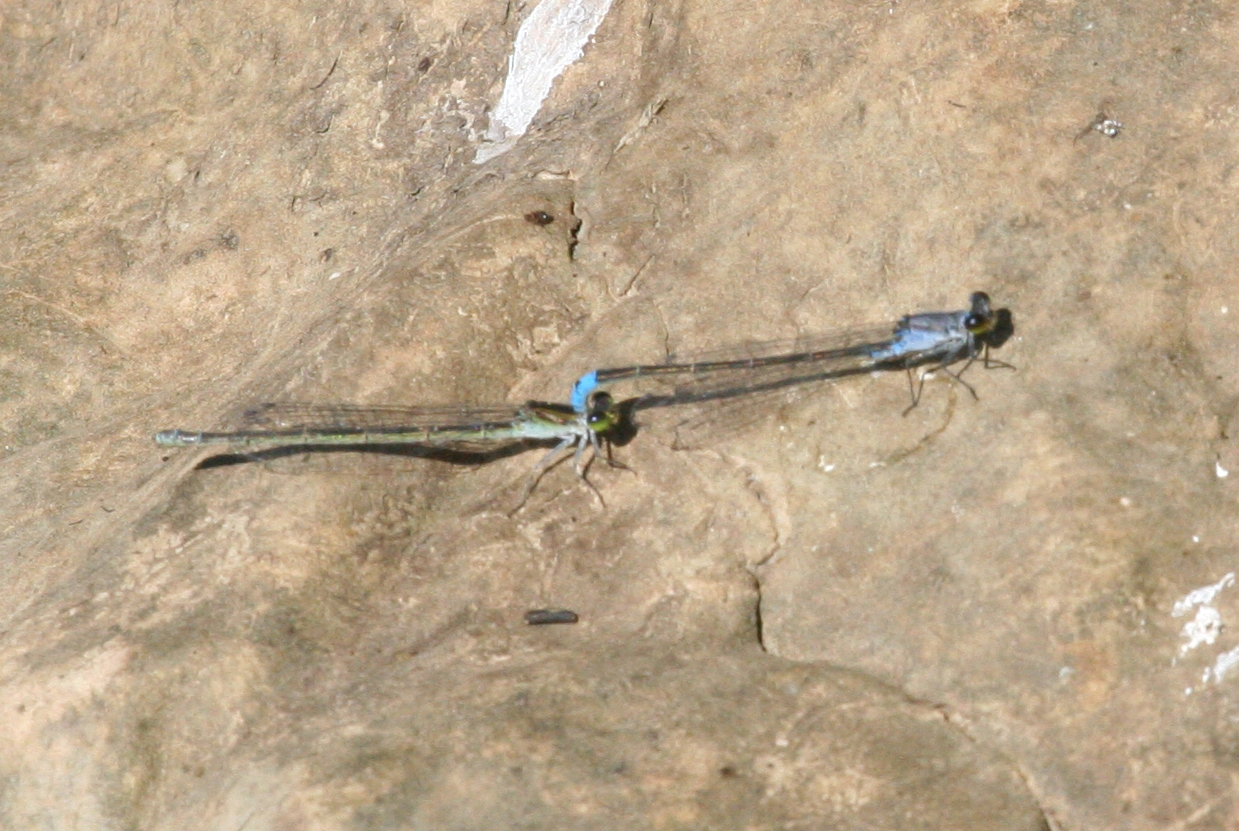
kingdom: Animalia
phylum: Arthropoda
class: Insecta
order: Odonata
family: Coenagrionidae
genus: Paracercion
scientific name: Paracercion calamorum
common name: Dusky lilysquatter
